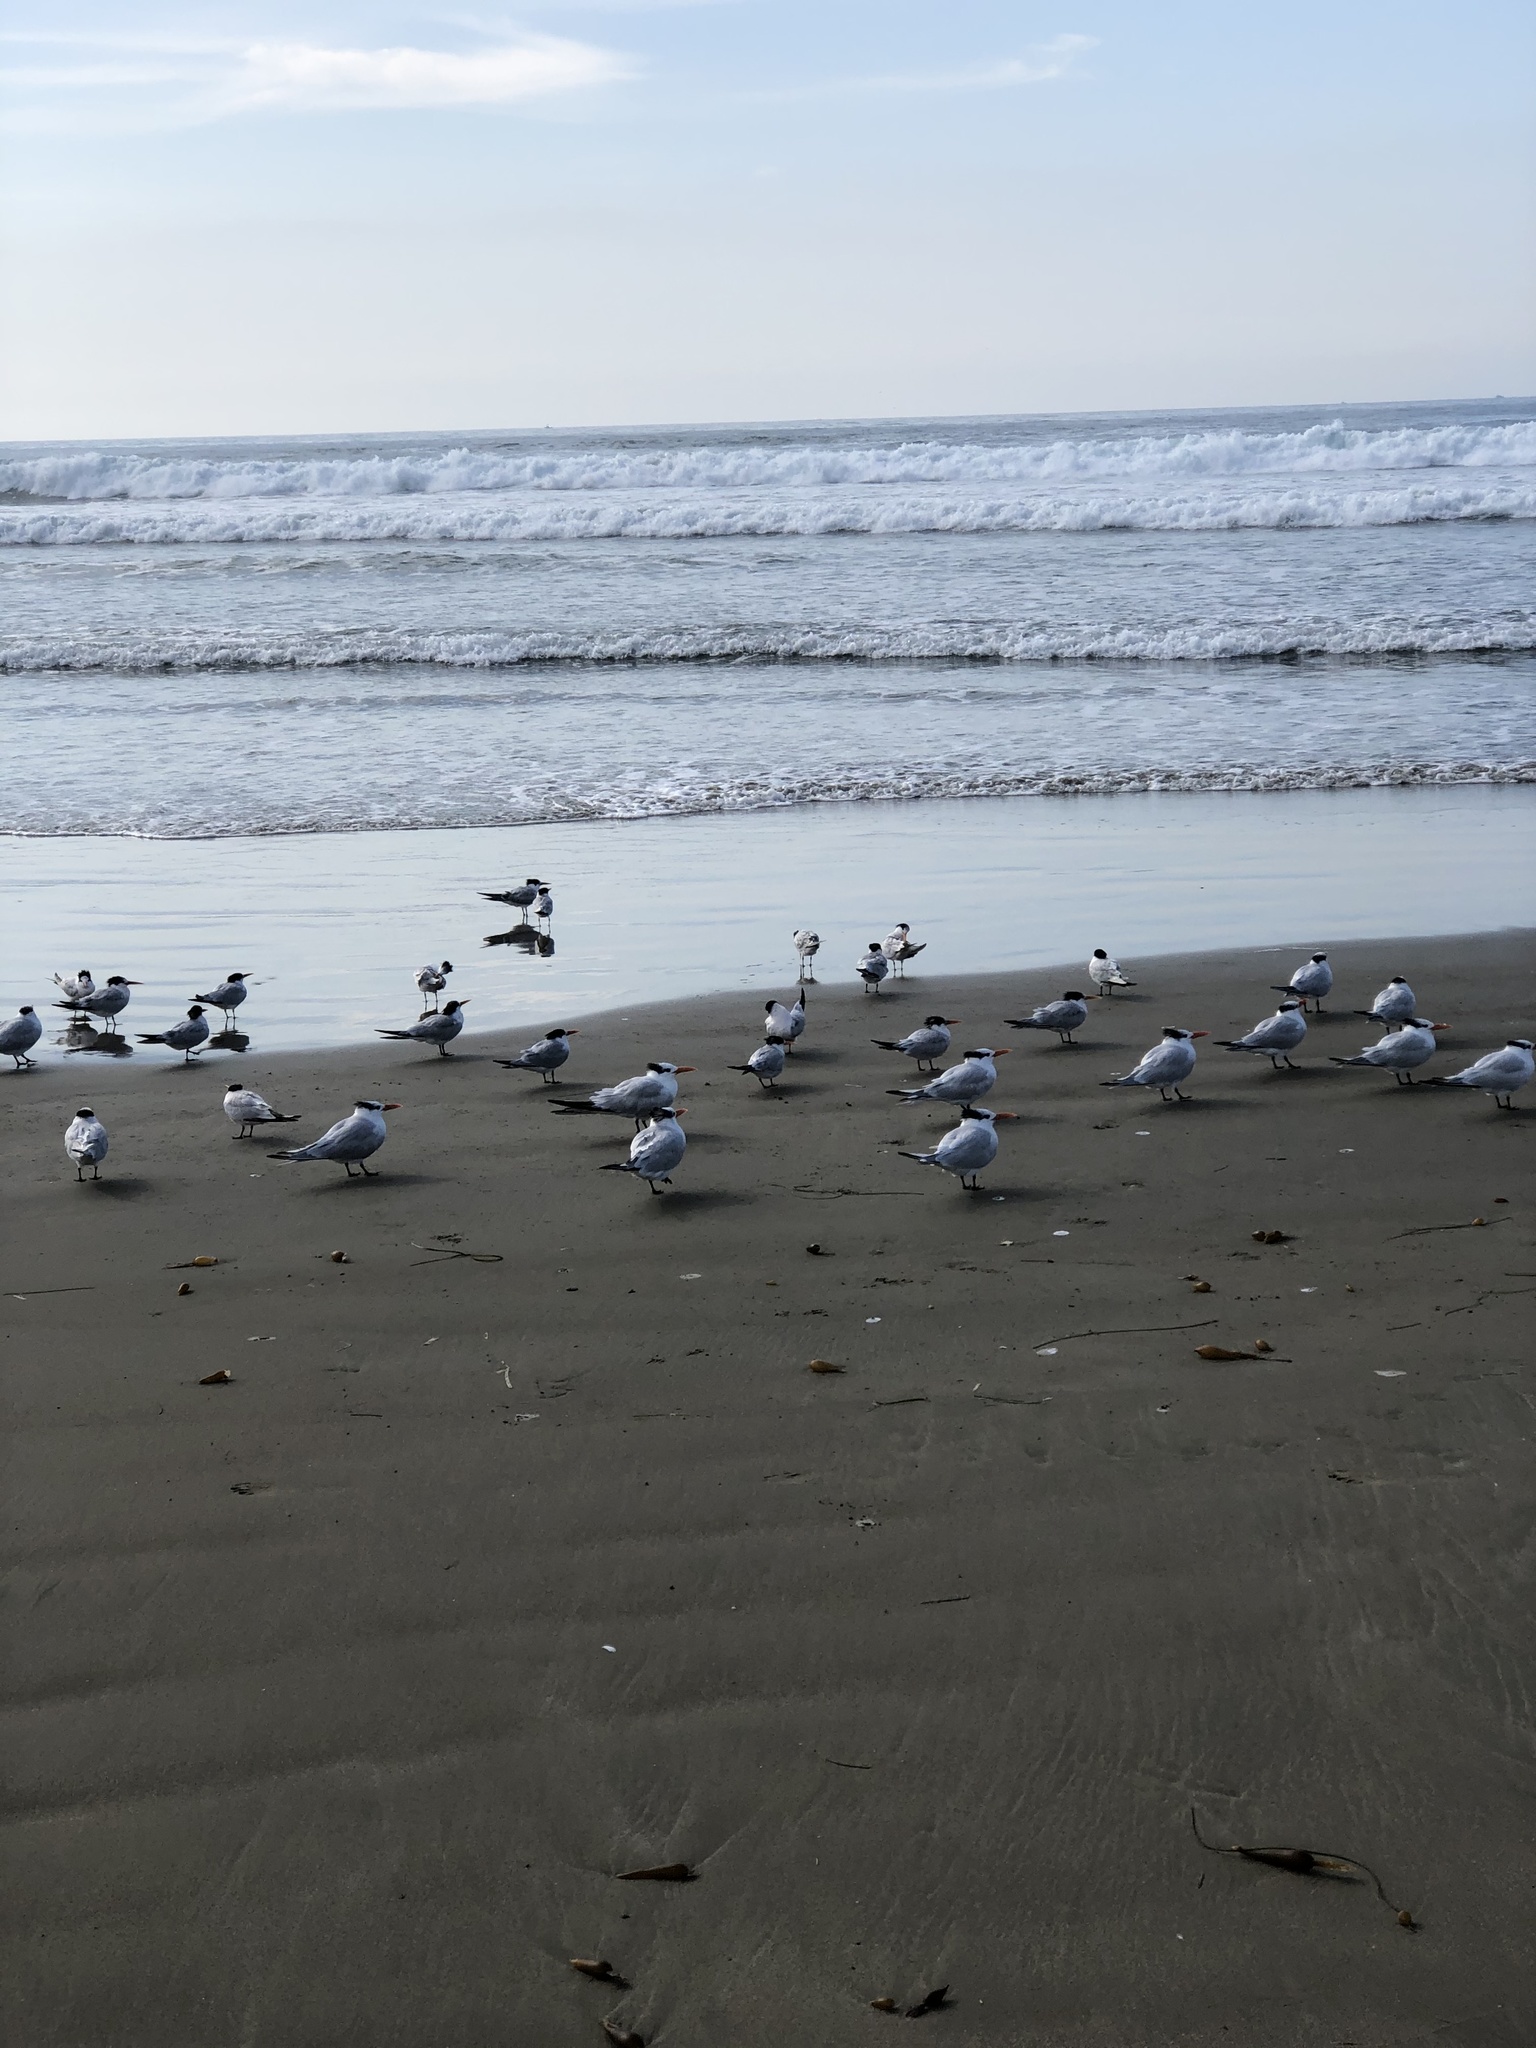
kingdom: Animalia
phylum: Chordata
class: Aves
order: Charadriiformes
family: Laridae
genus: Thalasseus
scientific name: Thalasseus maximus
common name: Royal tern
